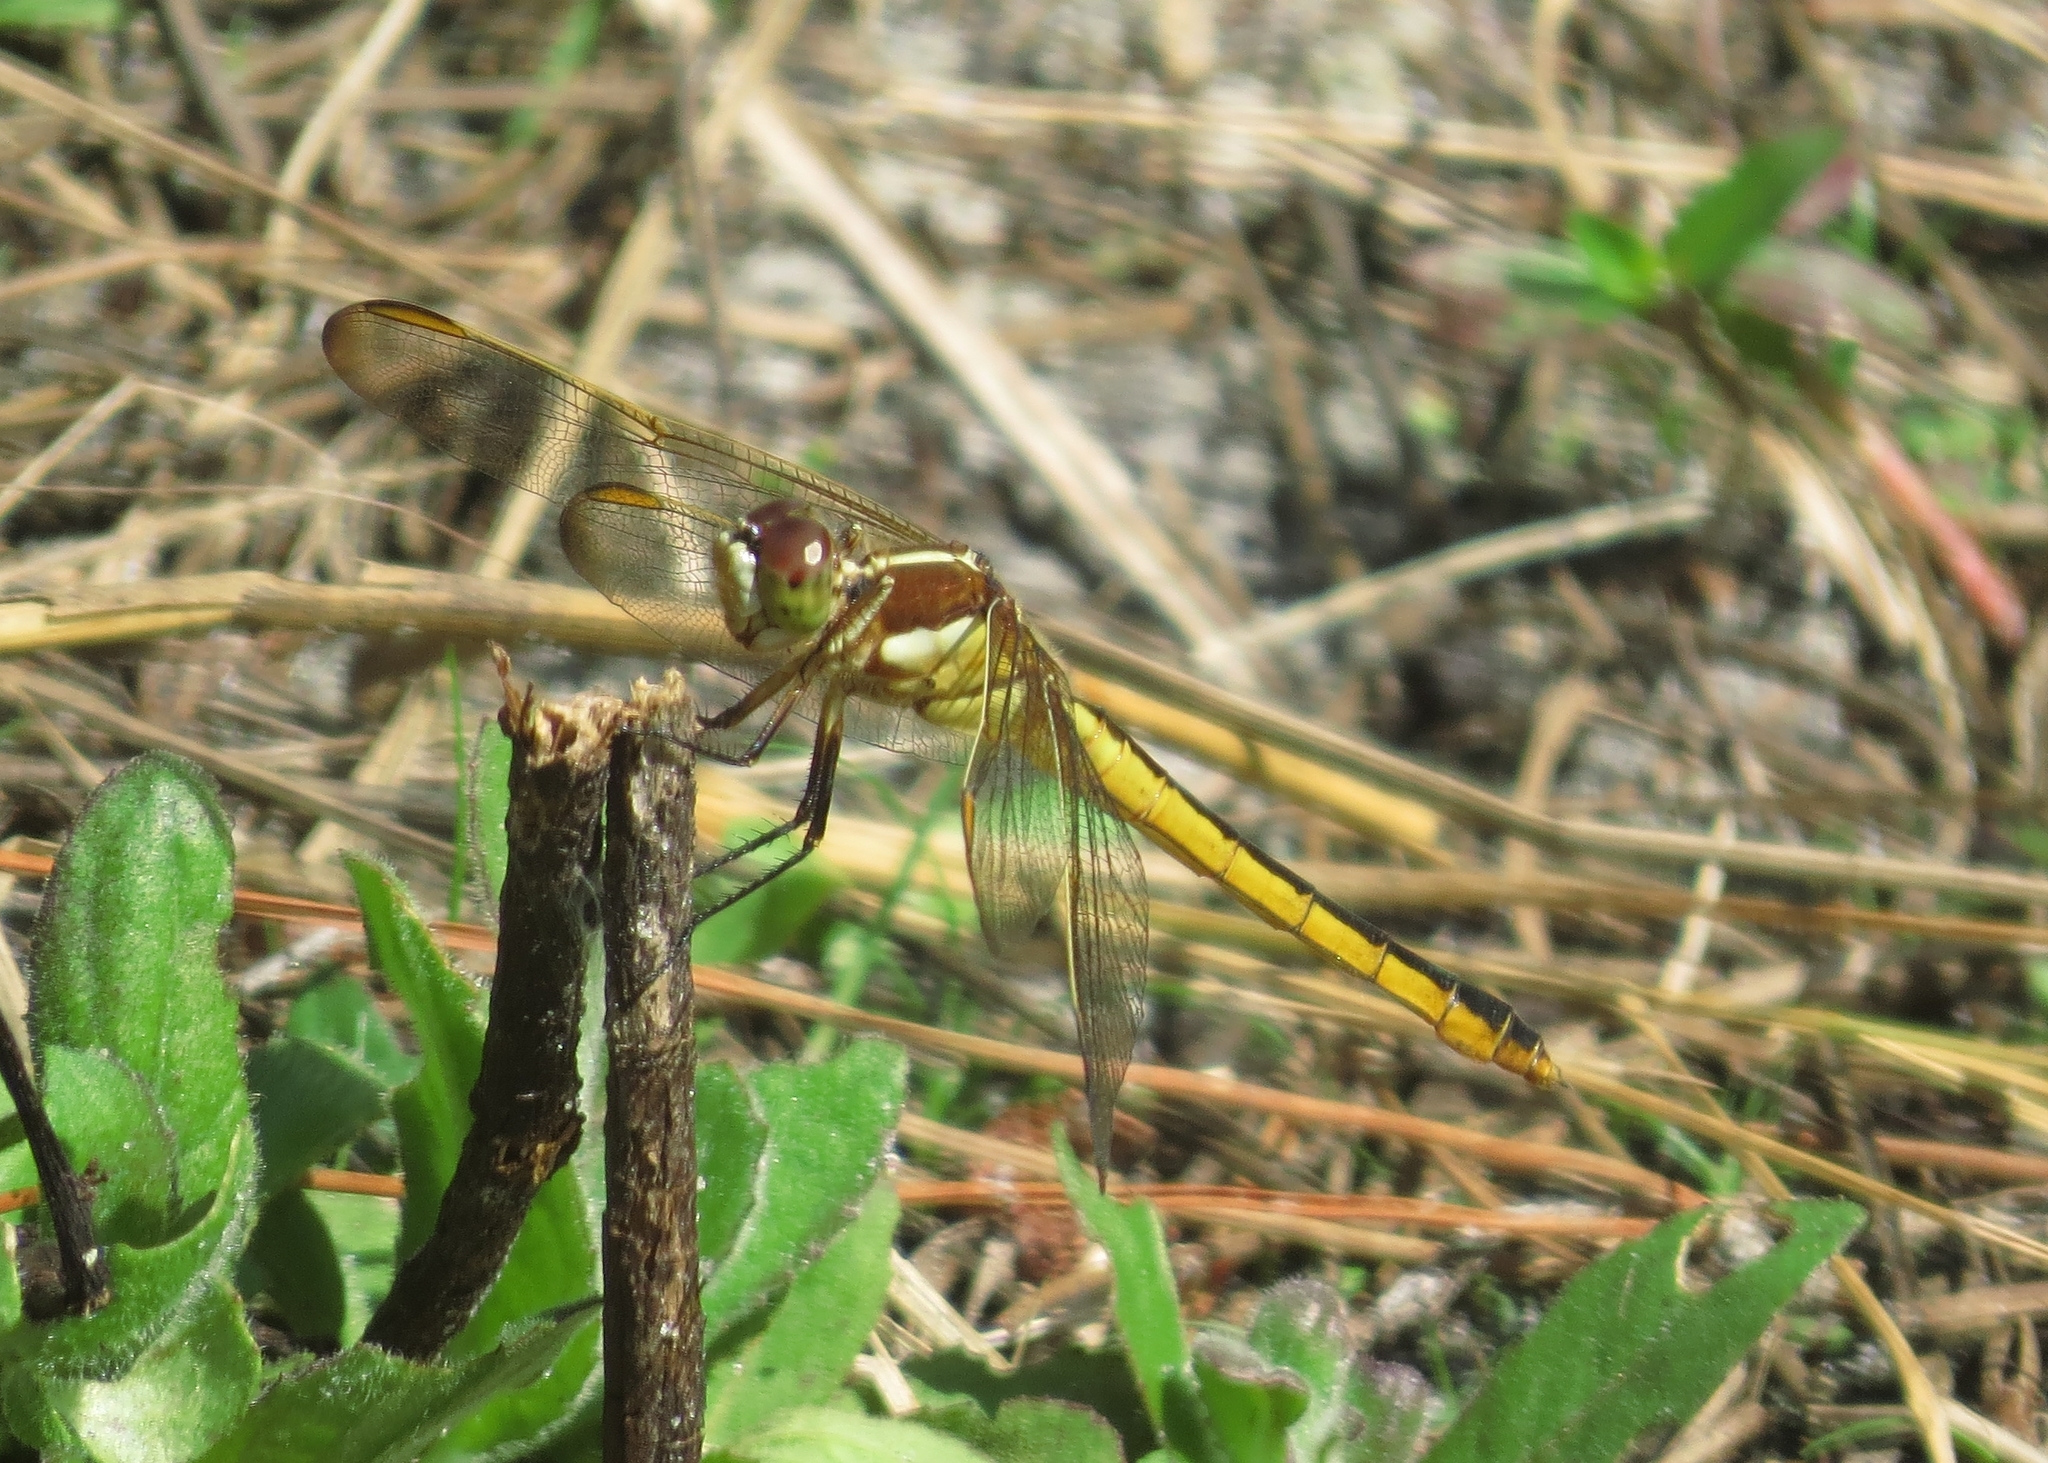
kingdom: Animalia
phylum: Arthropoda
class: Insecta
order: Odonata
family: Libellulidae
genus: Libellula
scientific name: Libellula auripennis
